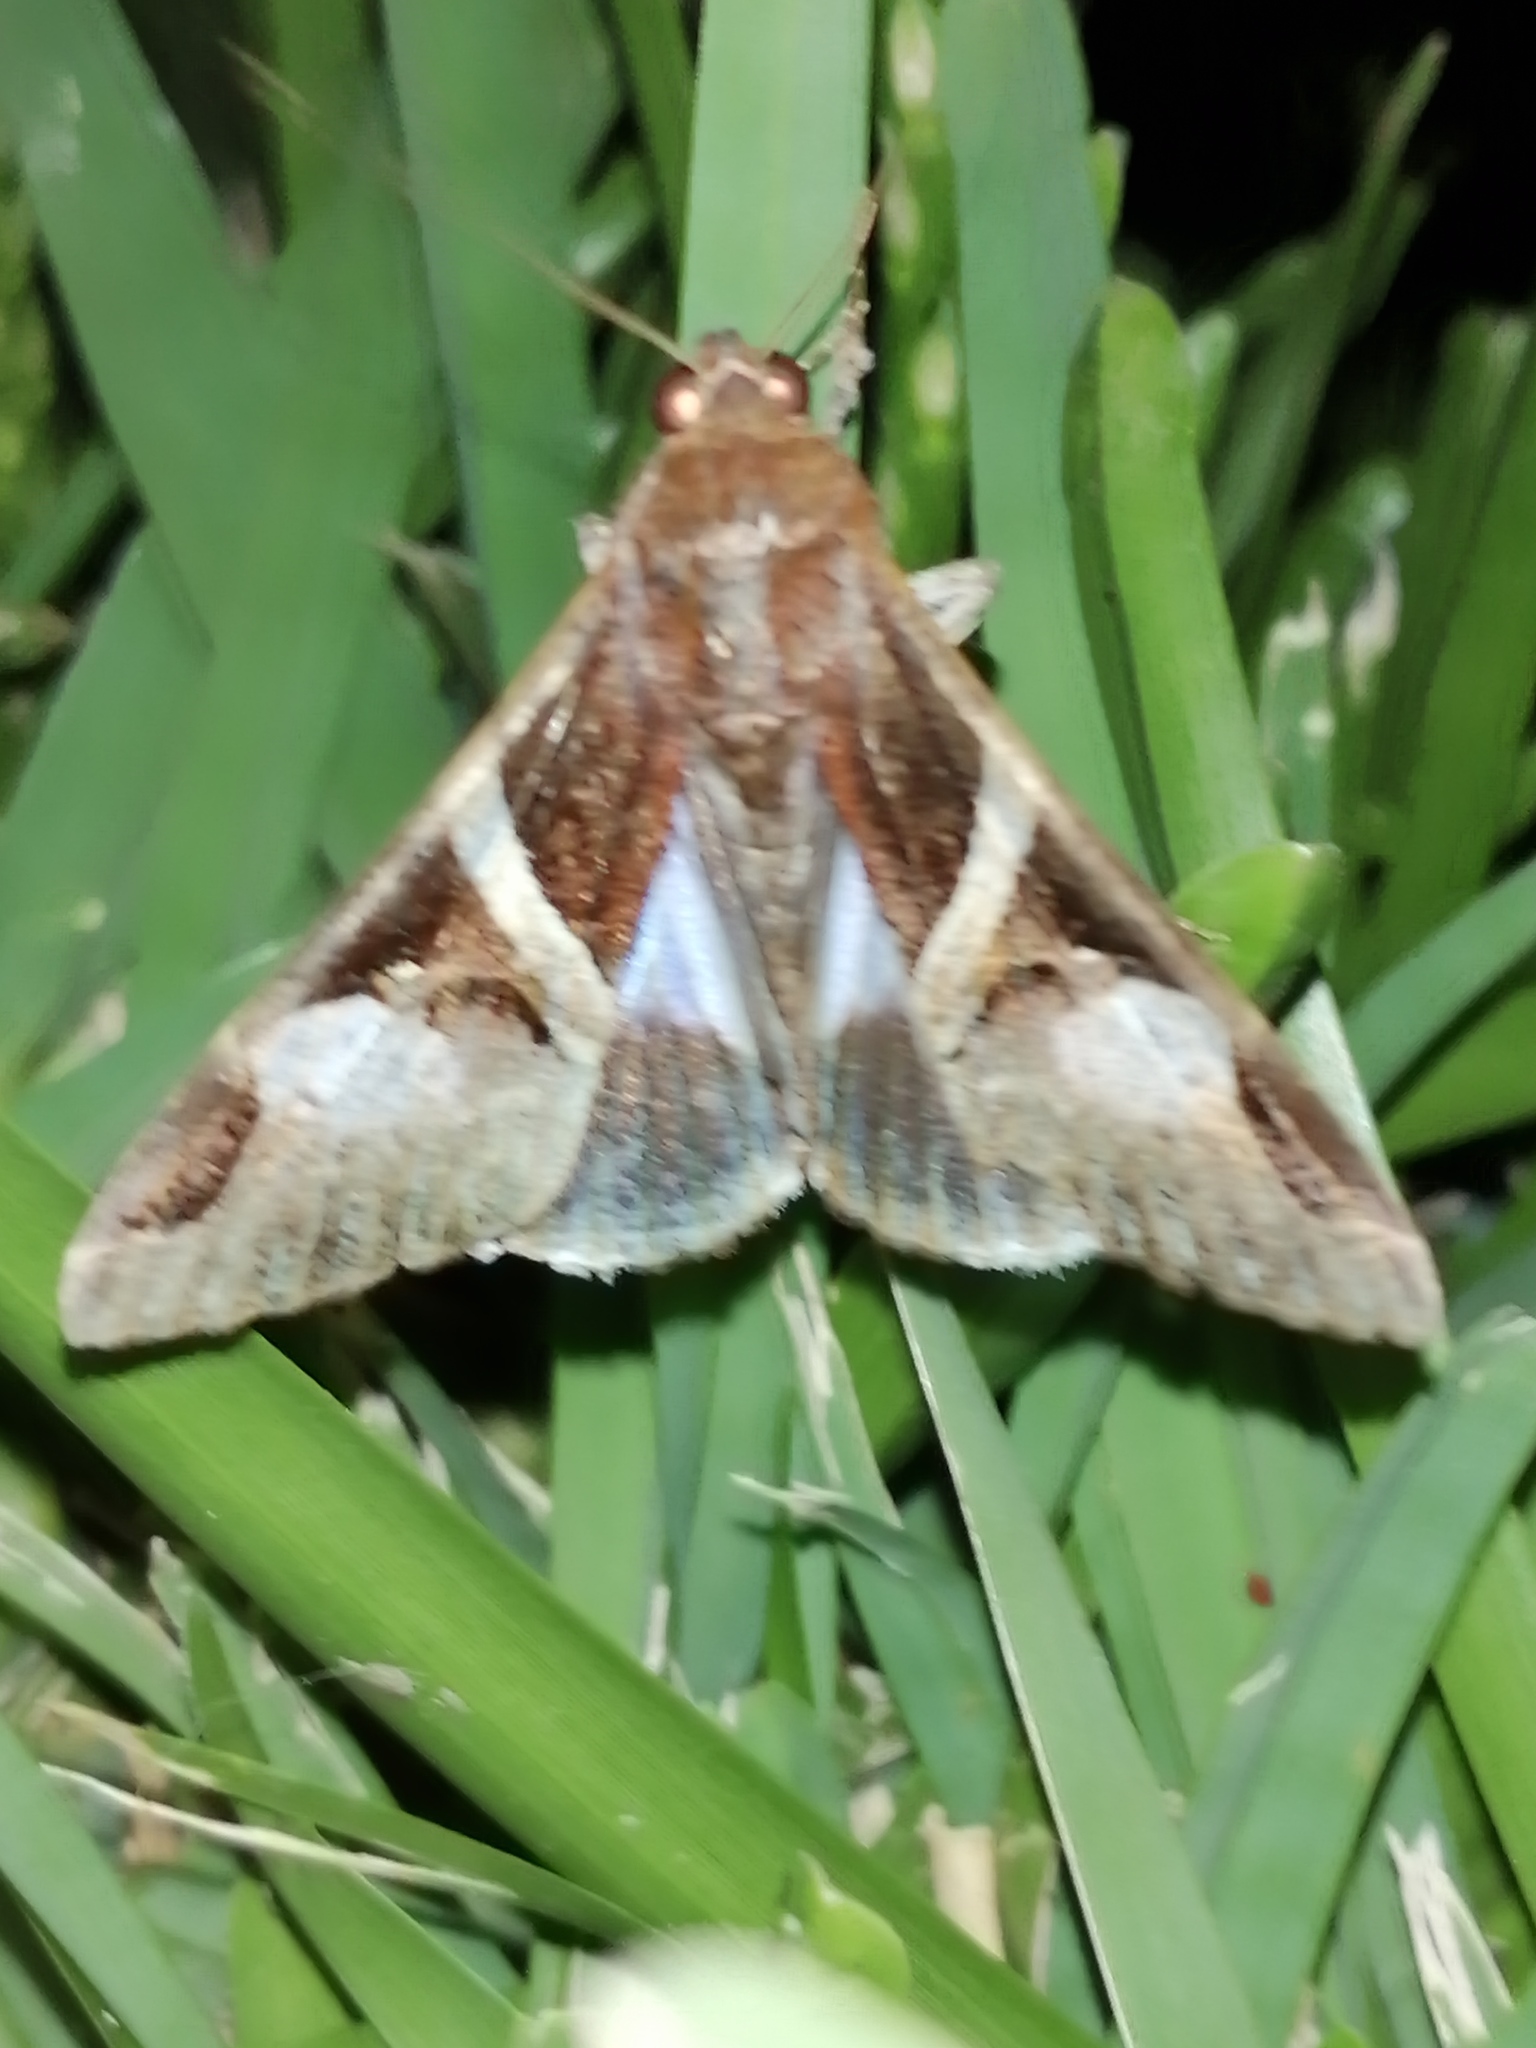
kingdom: Animalia
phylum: Arthropoda
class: Insecta
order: Lepidoptera
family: Erebidae
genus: Melipotis
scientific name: Melipotis fasciolaris
